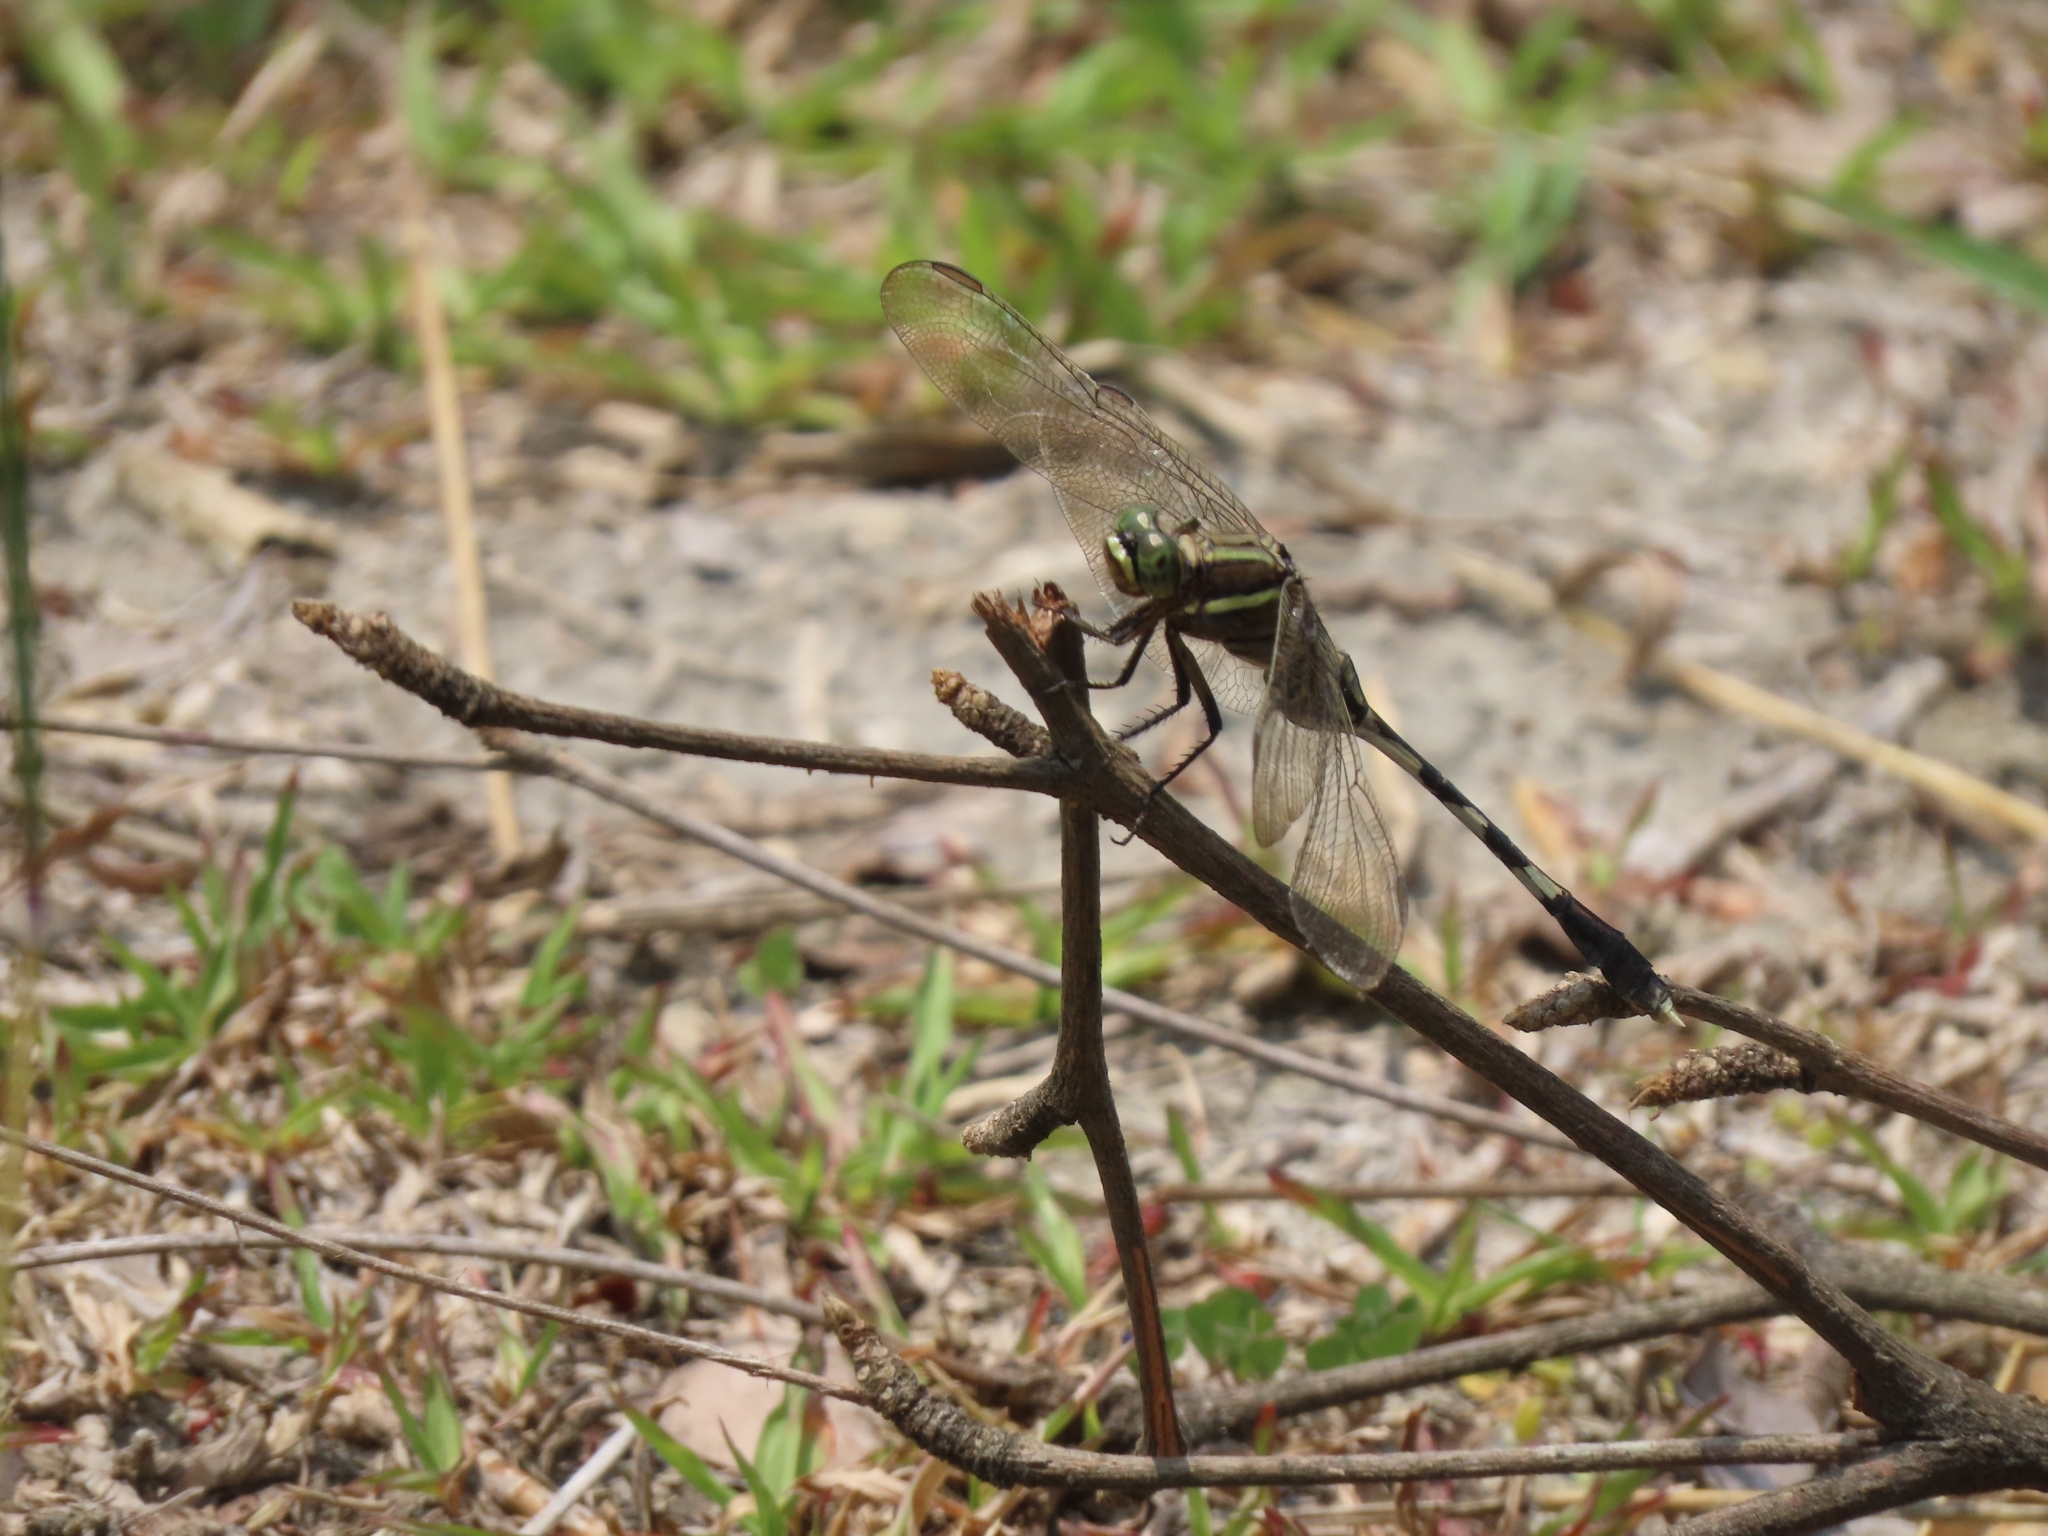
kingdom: Animalia
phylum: Arthropoda
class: Insecta
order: Odonata
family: Libellulidae
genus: Orthetrum
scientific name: Orthetrum sabina
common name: Slender skimmer
